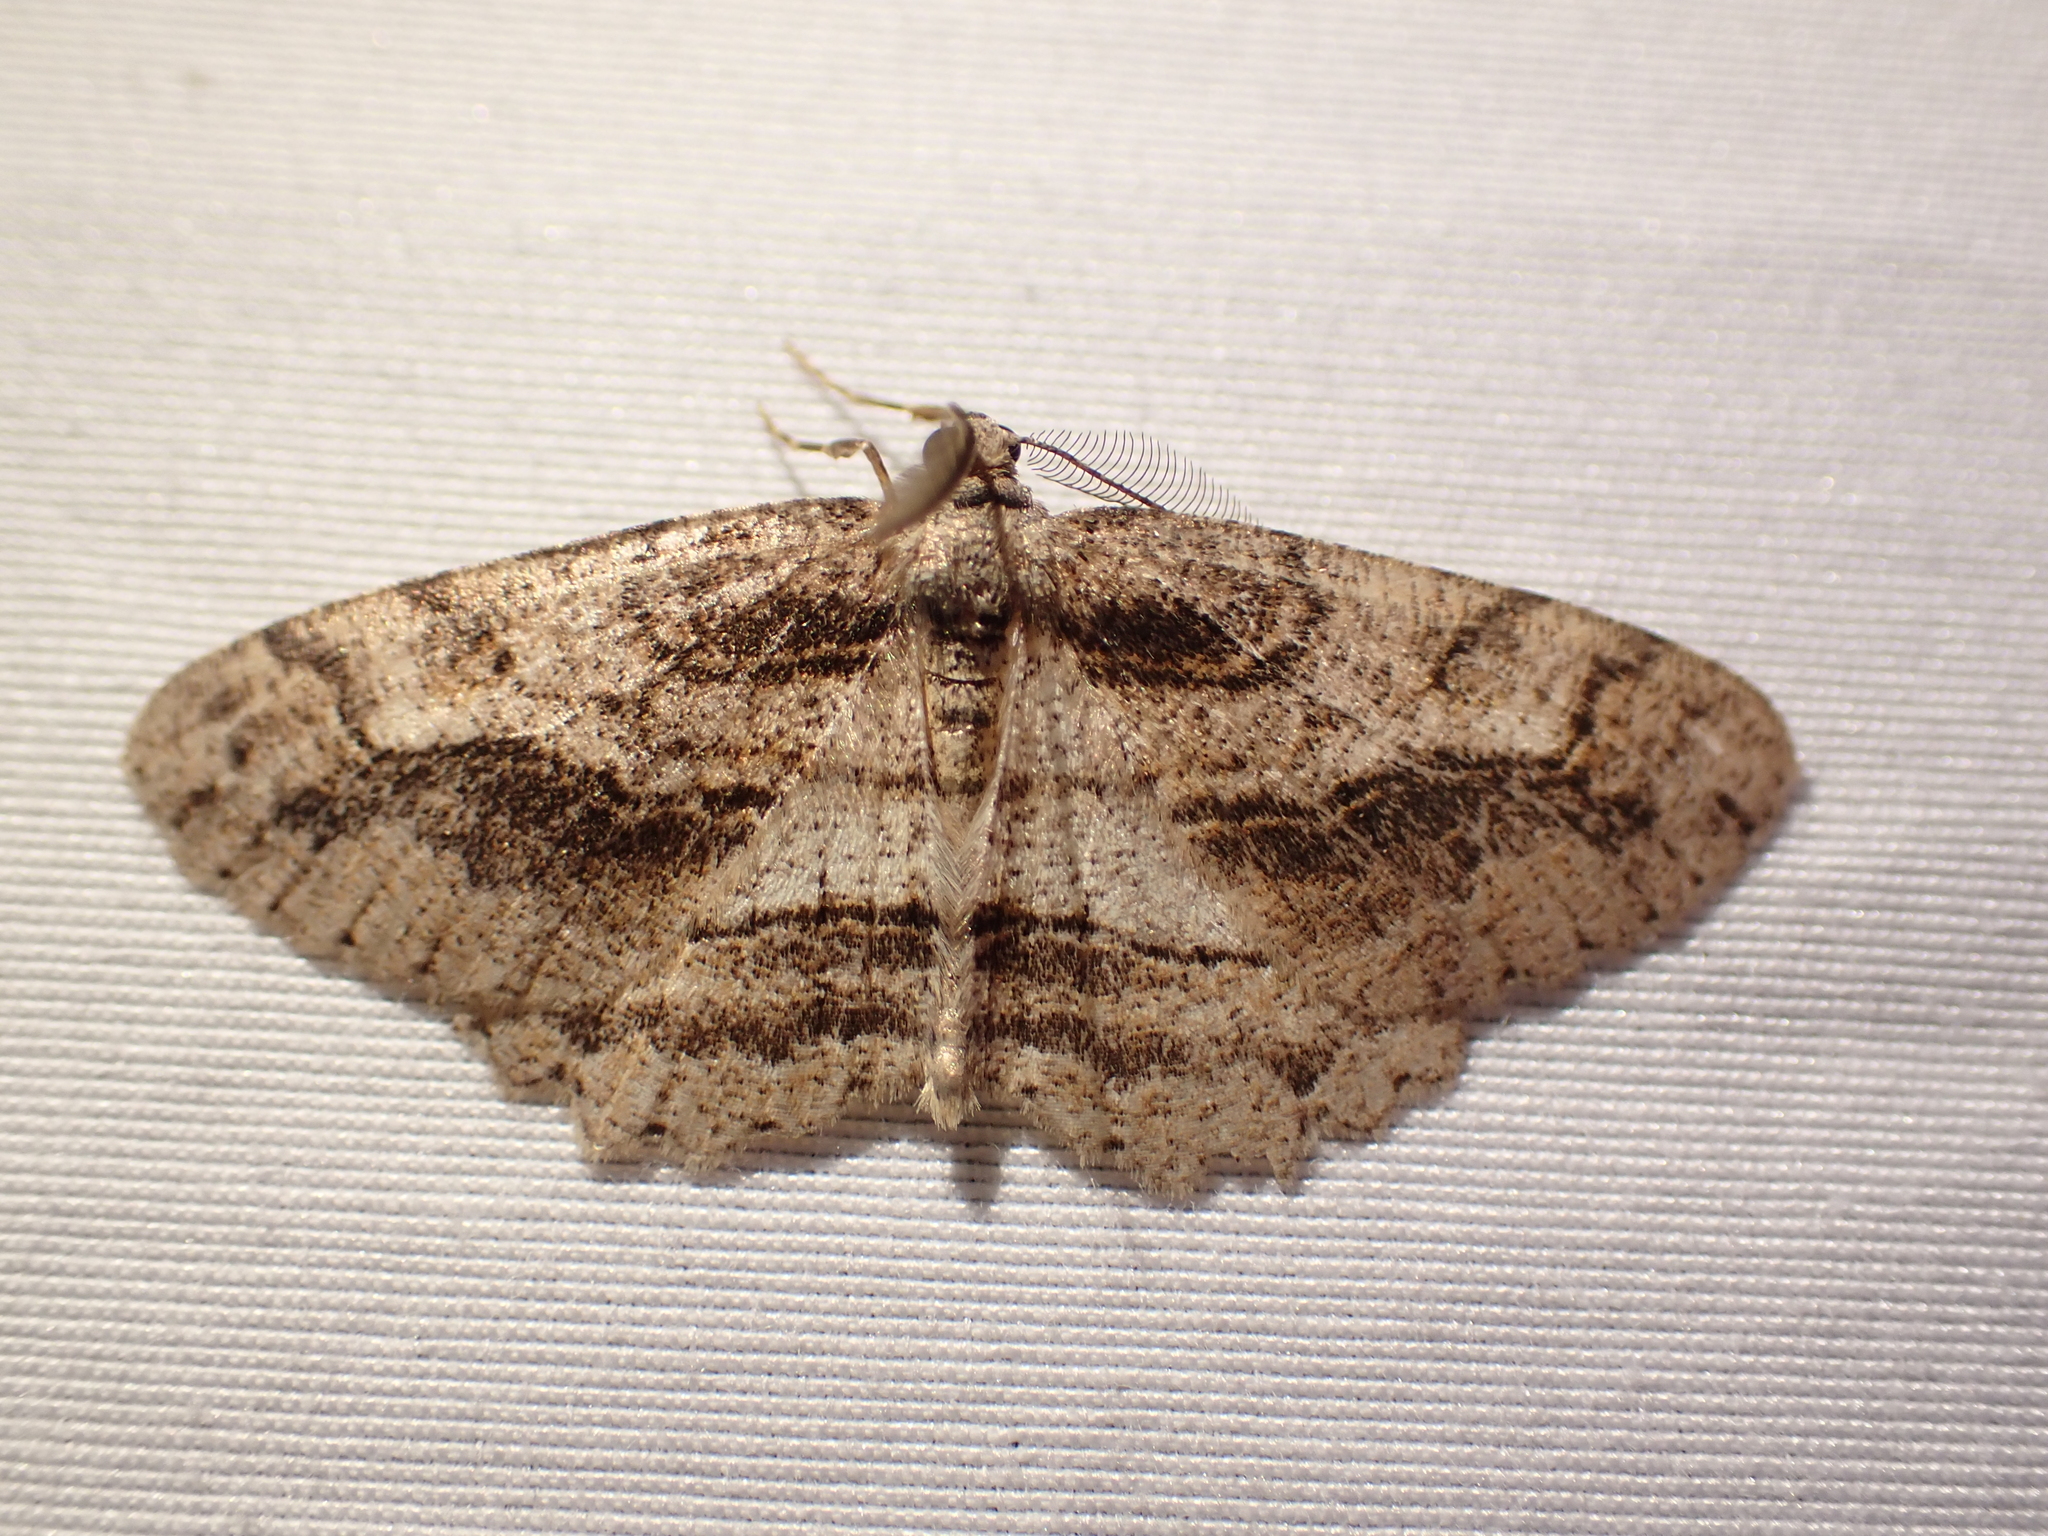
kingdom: Animalia
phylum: Arthropoda
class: Insecta
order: Lepidoptera
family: Geometridae
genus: Neoalcis
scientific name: Neoalcis californiaria
